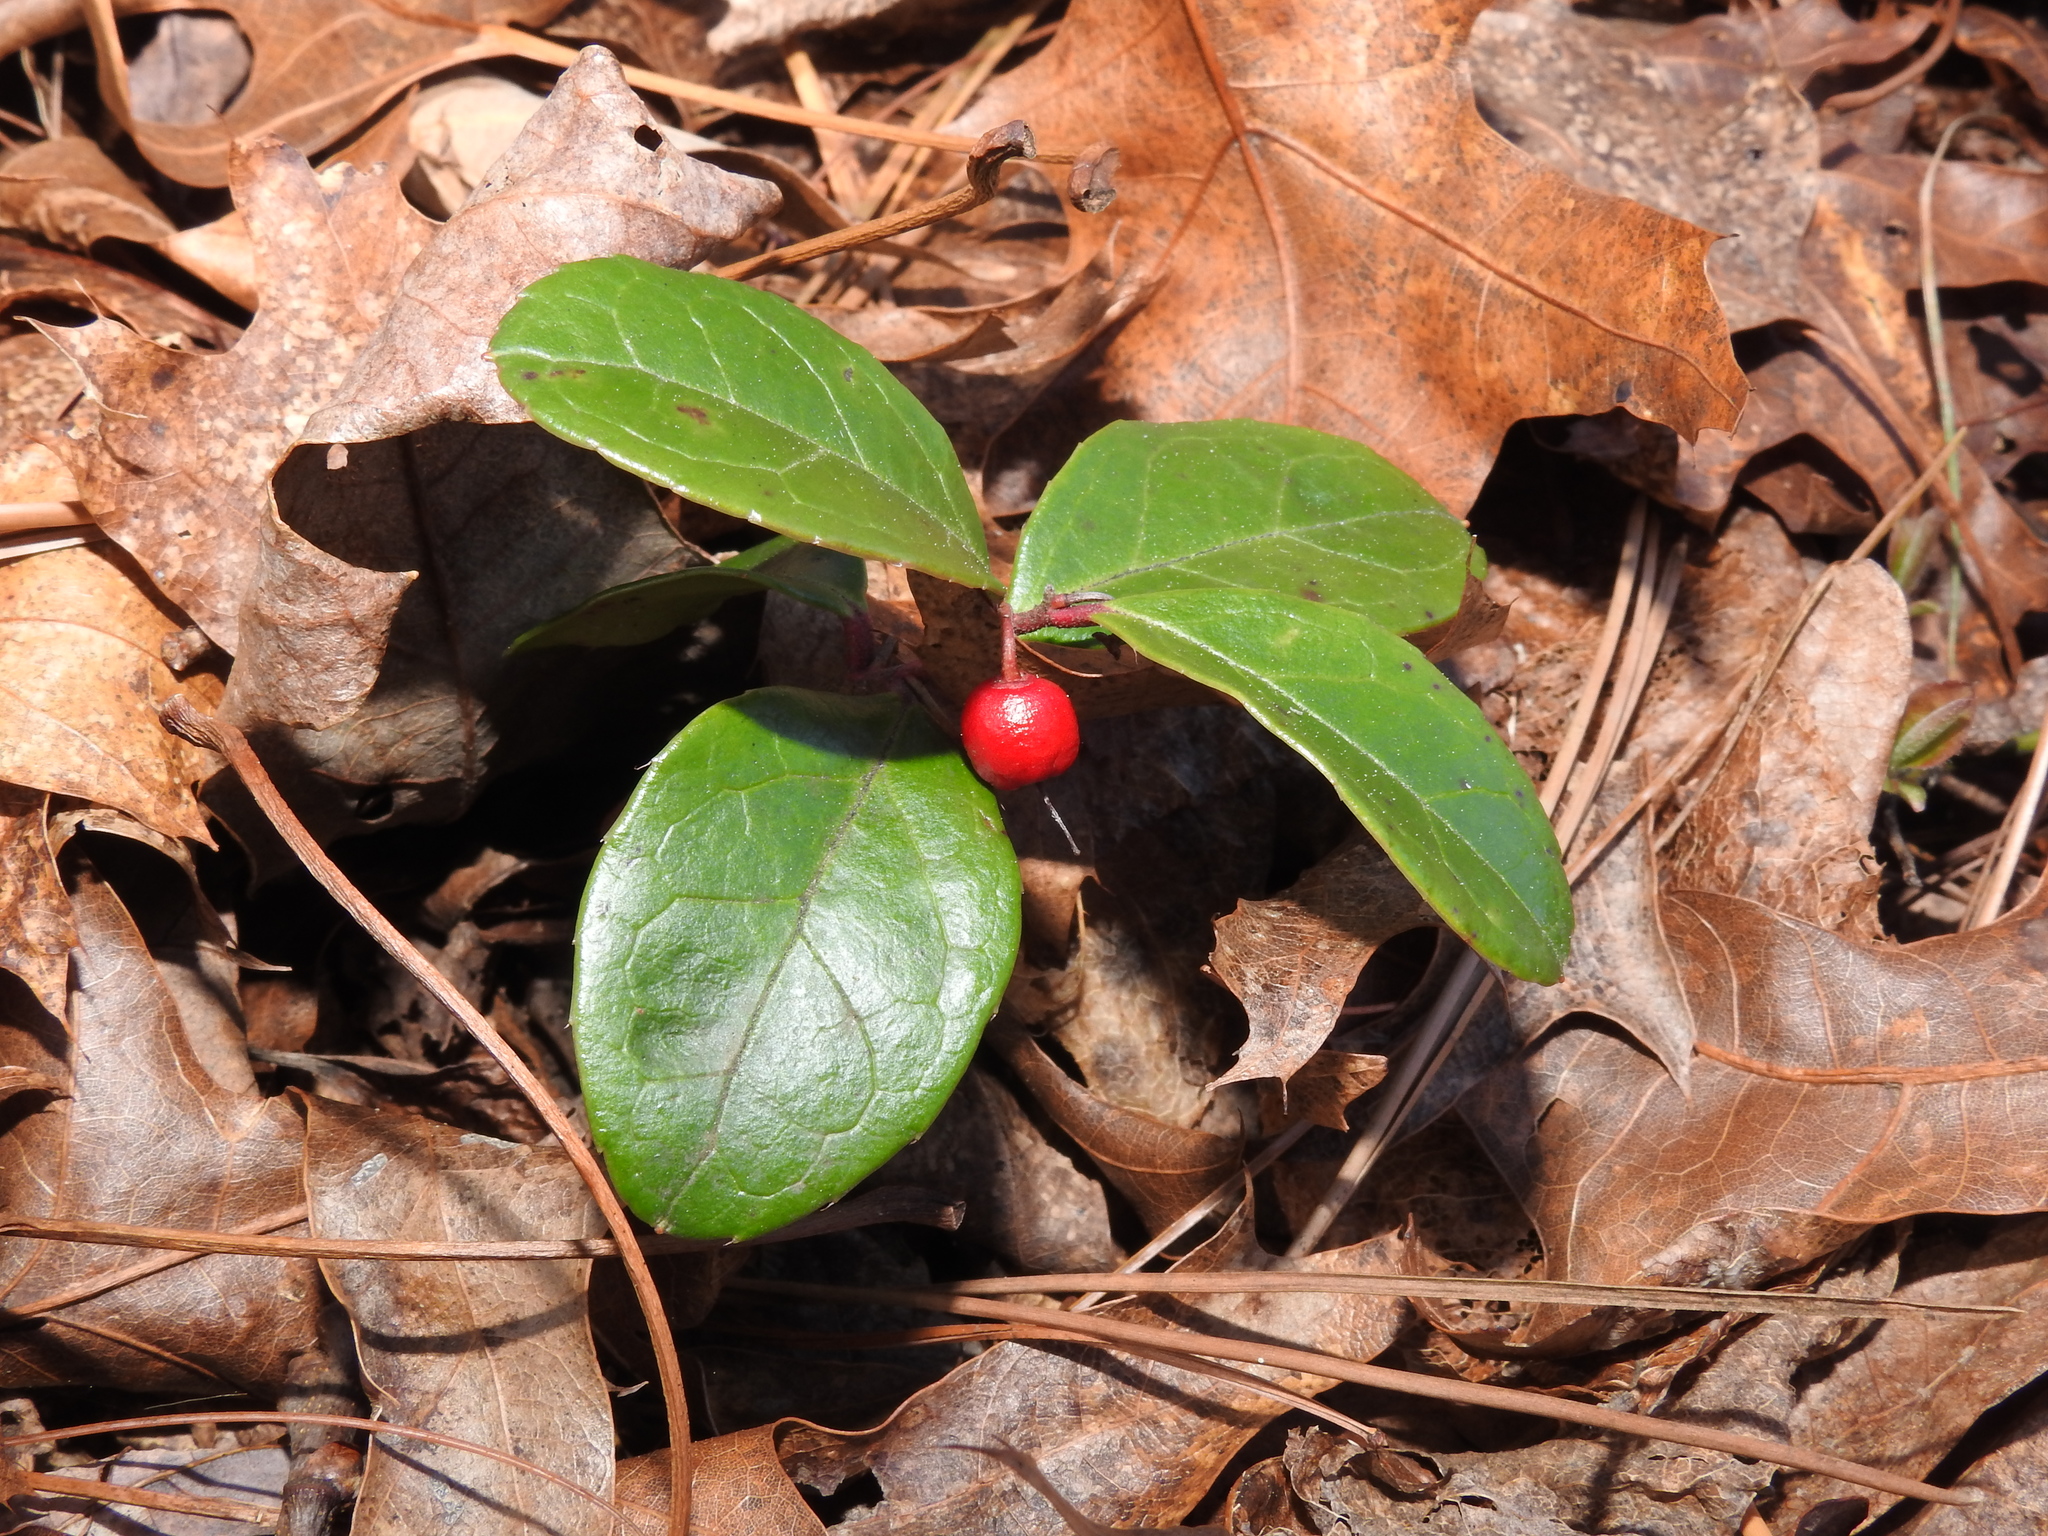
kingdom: Plantae
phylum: Tracheophyta
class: Magnoliopsida
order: Ericales
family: Ericaceae
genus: Gaultheria
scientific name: Gaultheria procumbens
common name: Checkerberry
